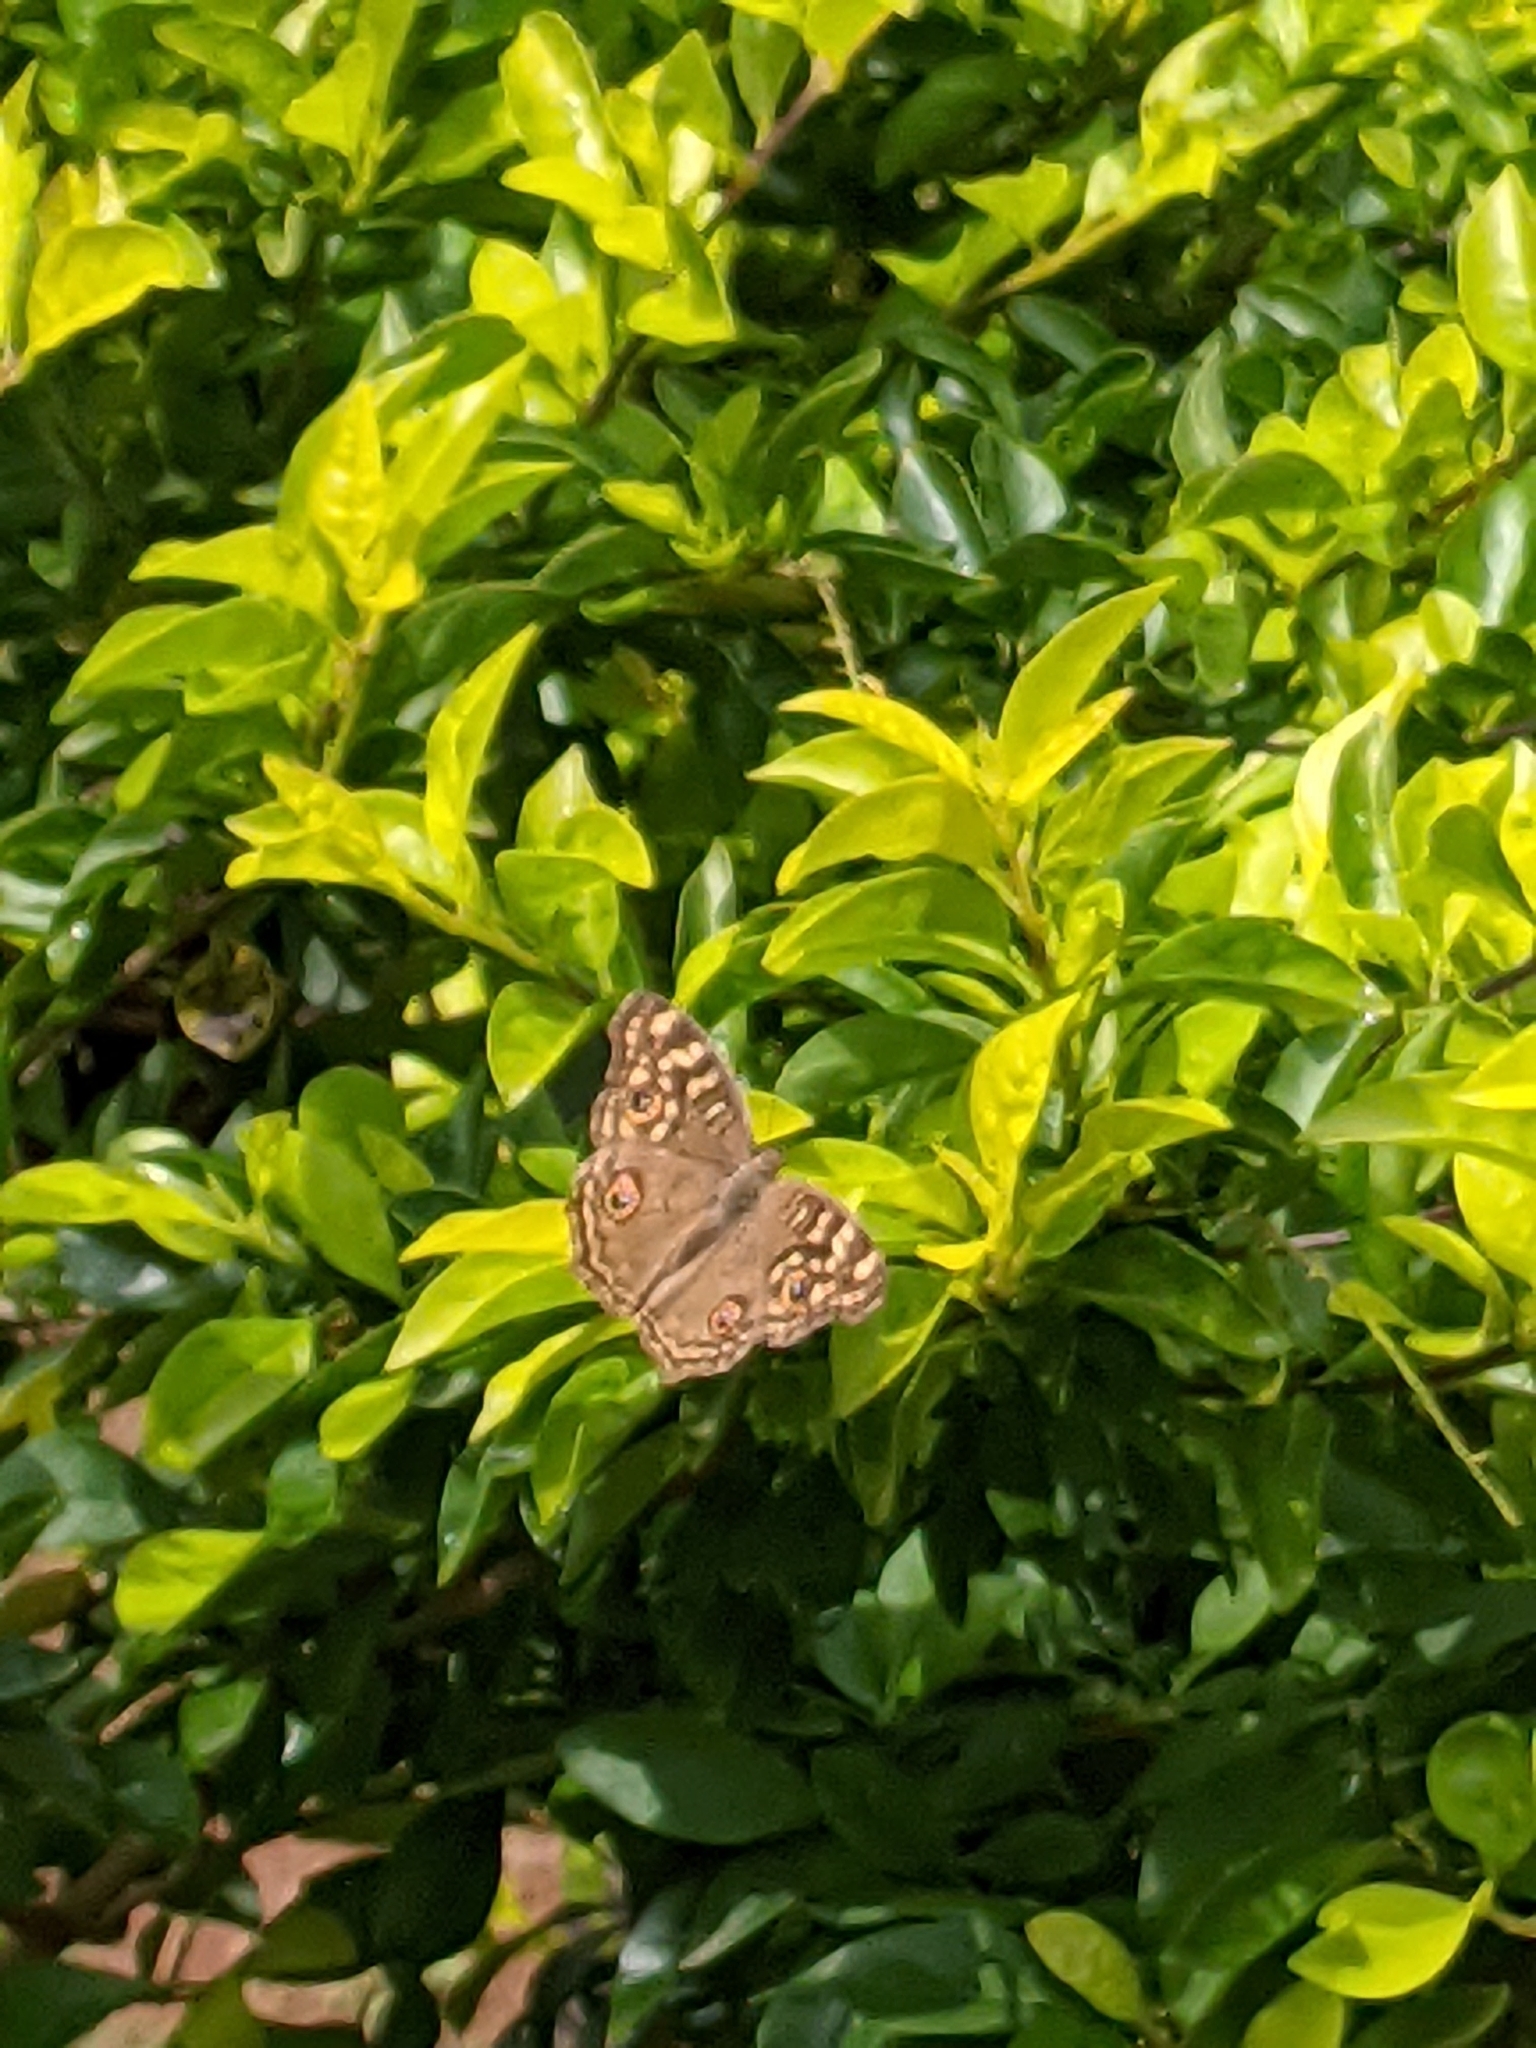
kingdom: Animalia
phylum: Arthropoda
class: Insecta
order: Lepidoptera
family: Nymphalidae
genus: Junonia
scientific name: Junonia lemonias
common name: Lemon pansy
